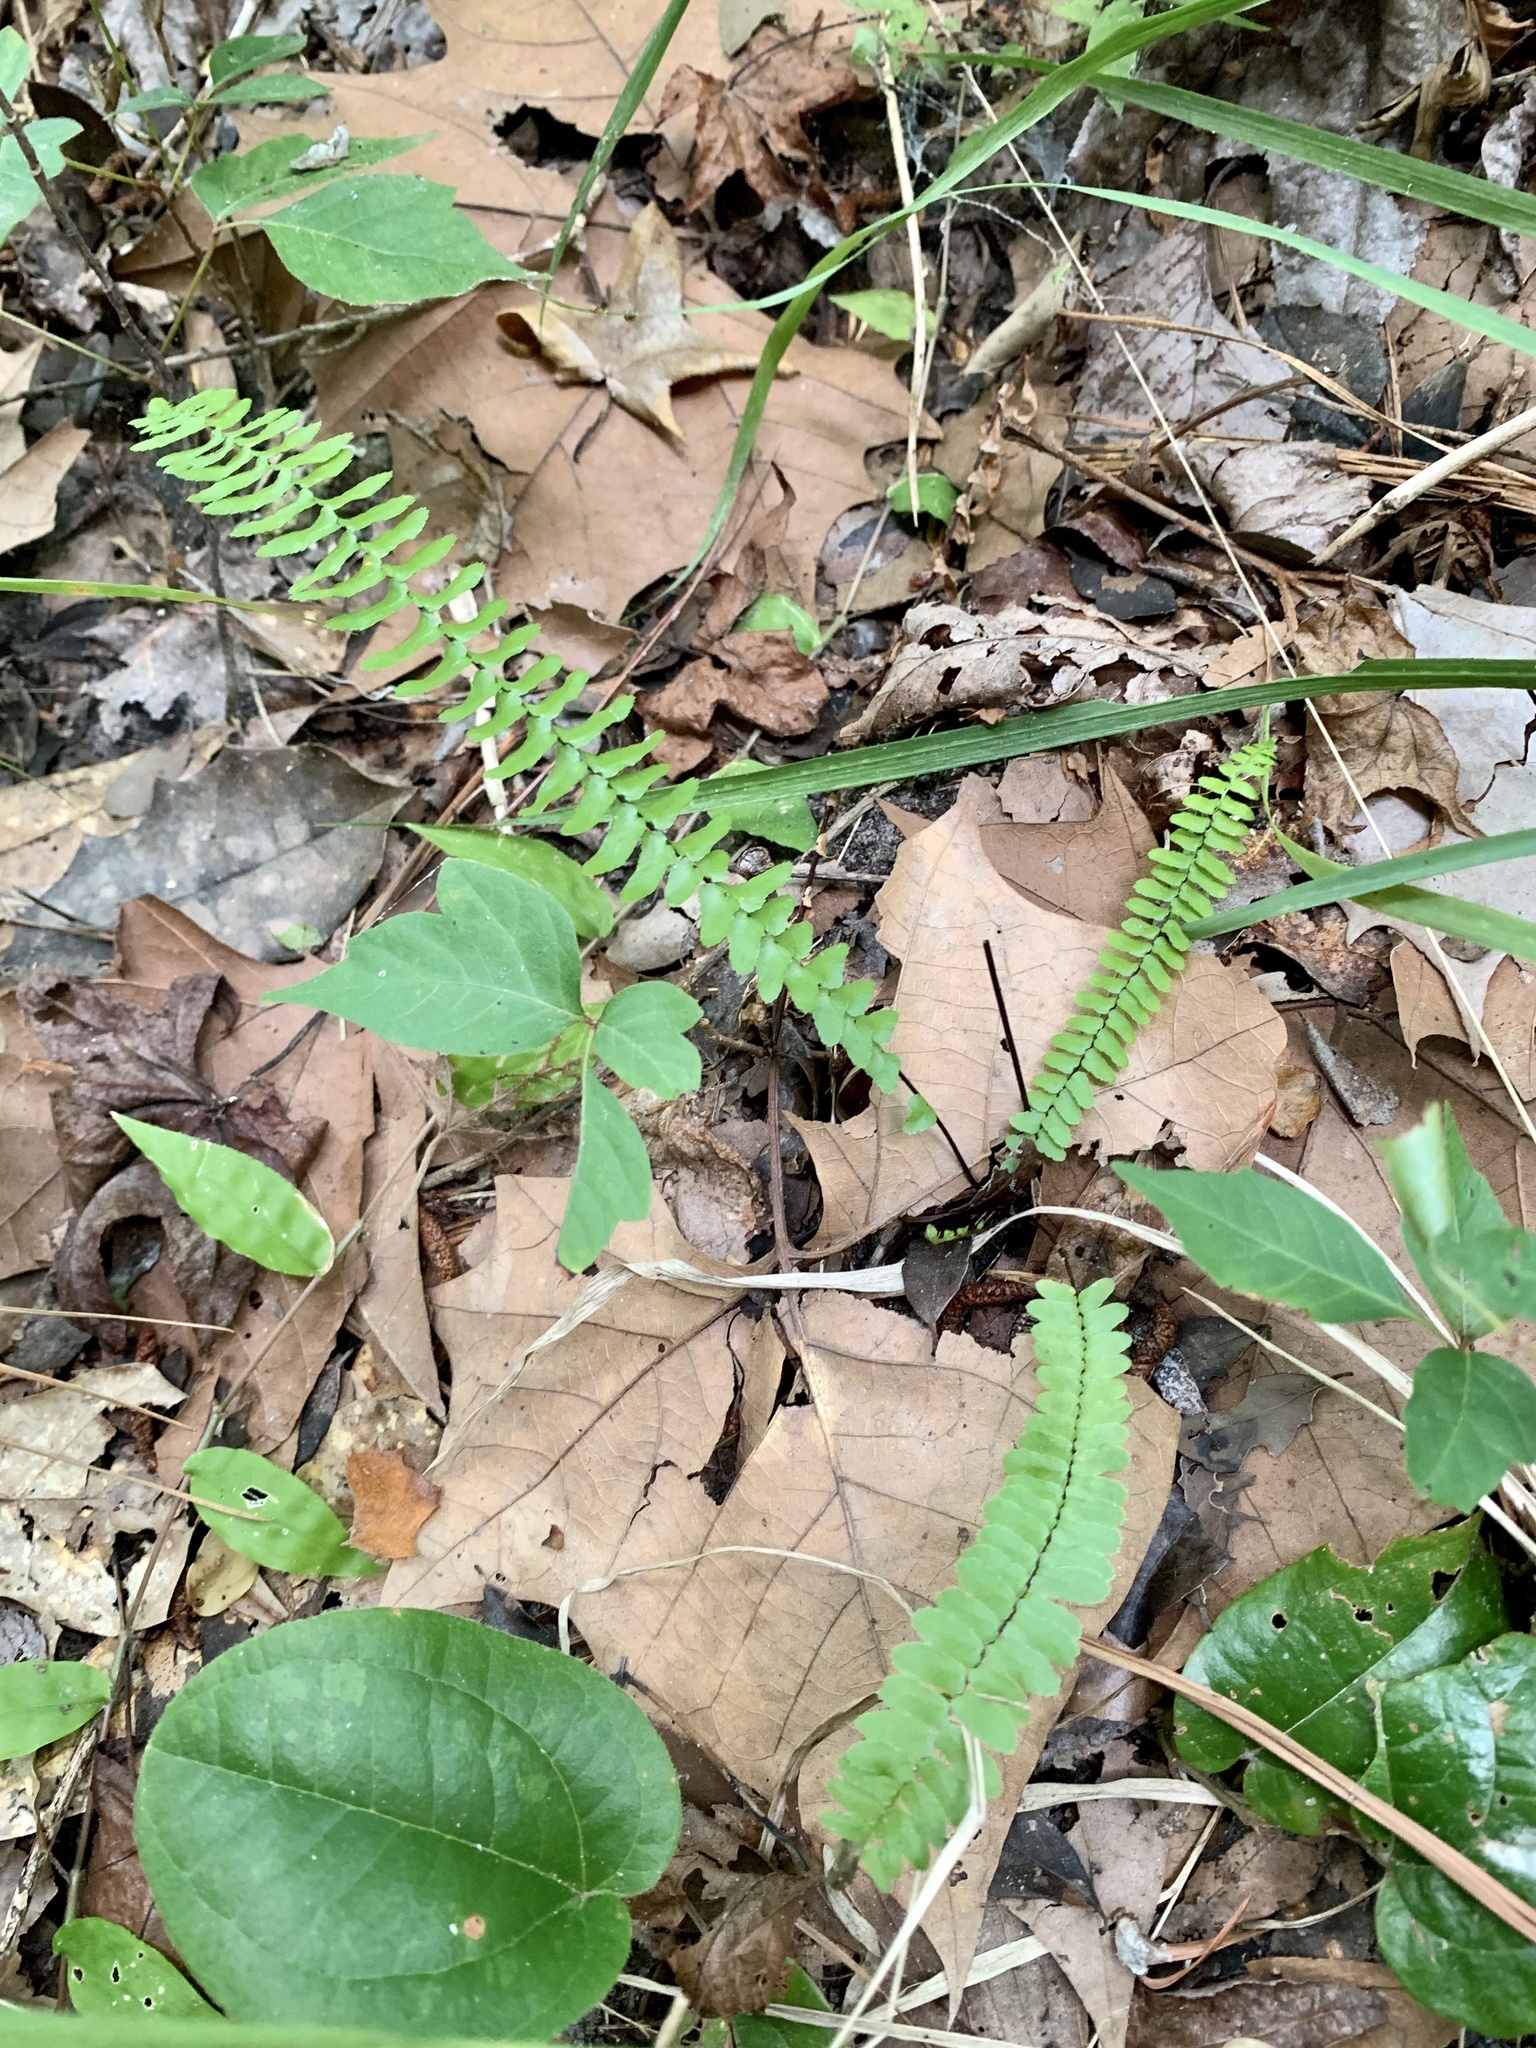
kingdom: Plantae
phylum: Tracheophyta
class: Polypodiopsida
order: Polypodiales
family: Aspleniaceae
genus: Asplenium
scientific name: Asplenium platyneuron
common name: Ebony spleenwort
